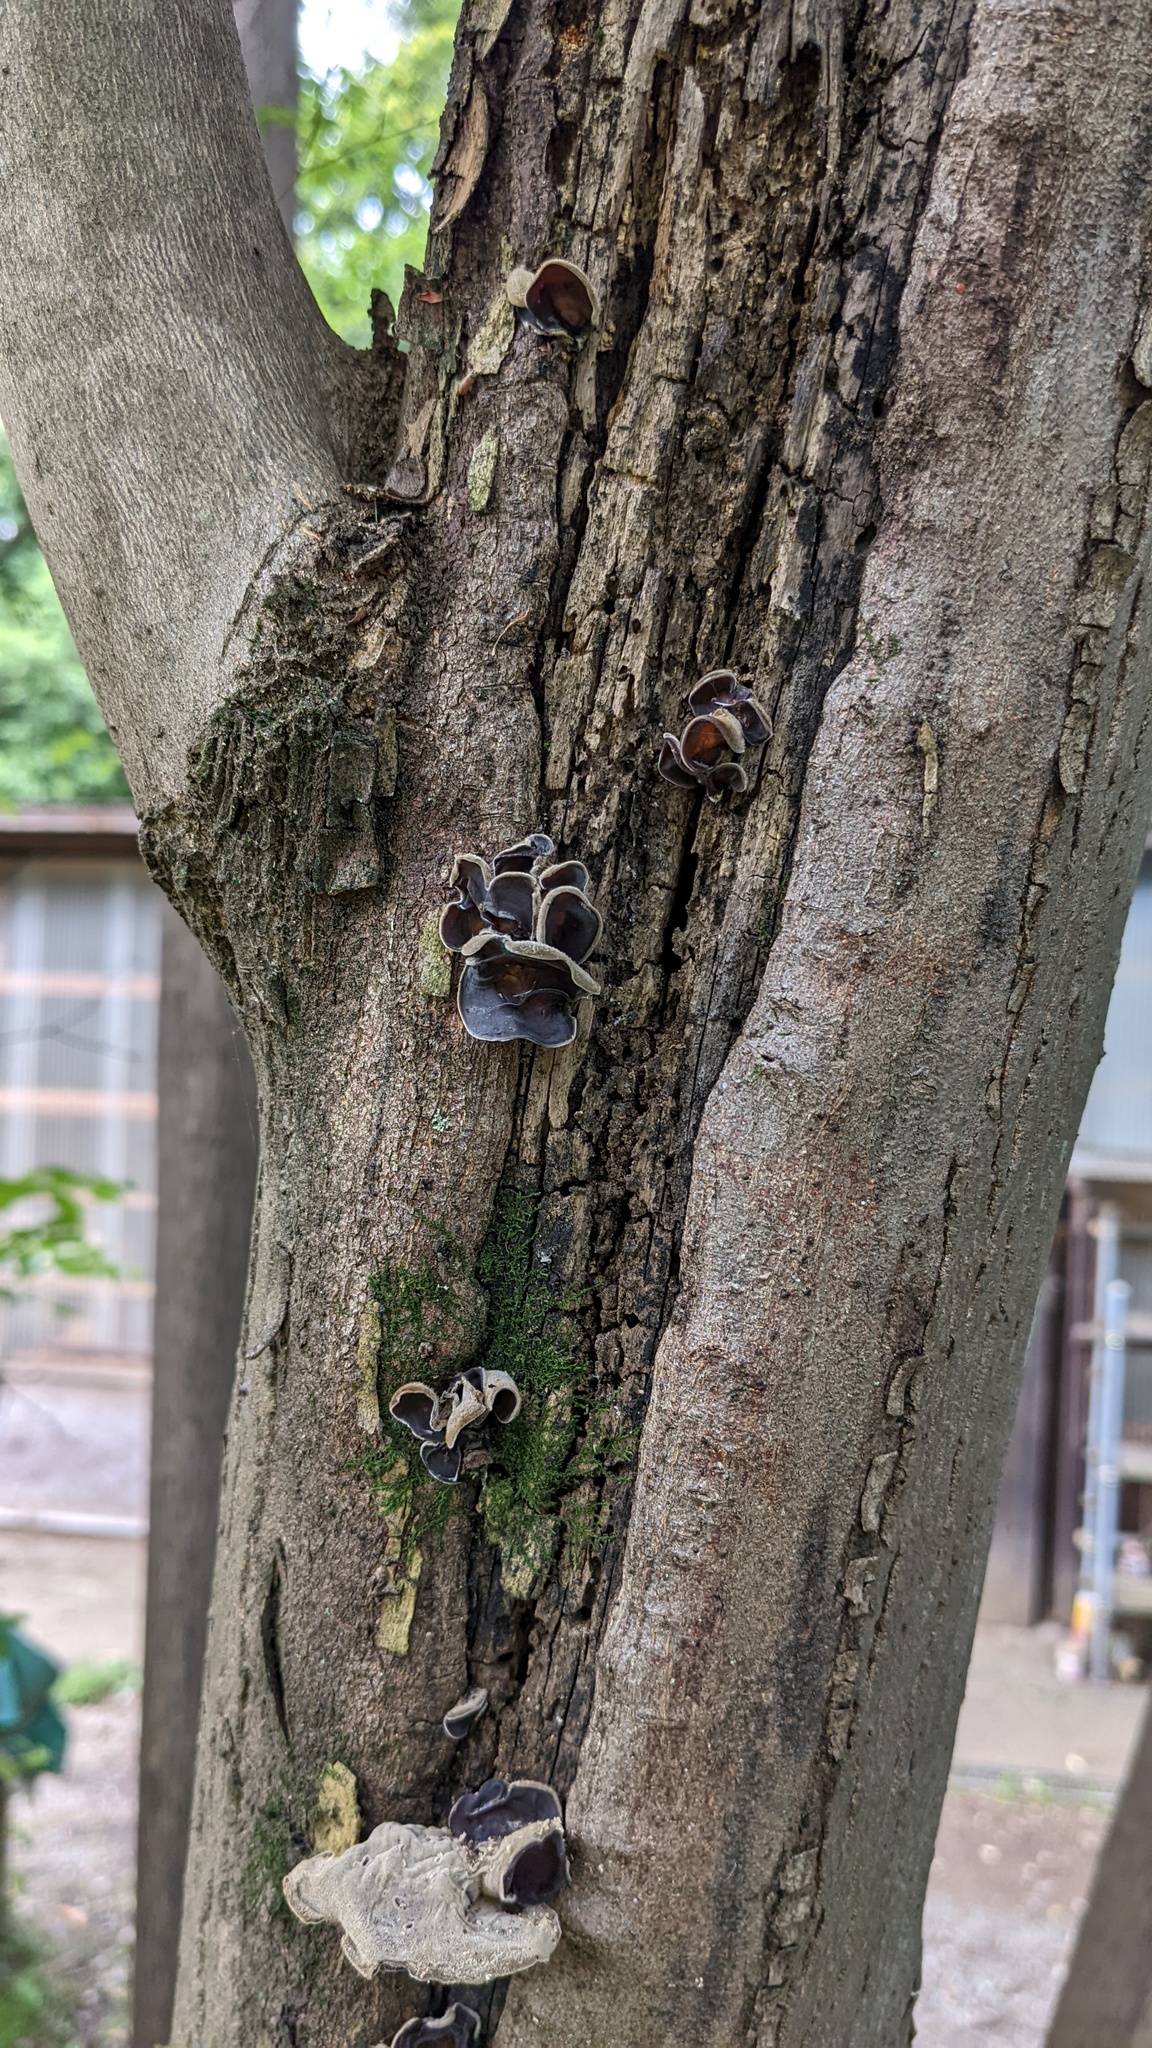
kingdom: Fungi
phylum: Basidiomycota
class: Agaricomycetes
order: Auriculariales
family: Auriculariaceae
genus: Auricularia
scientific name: Auricularia nigricans
